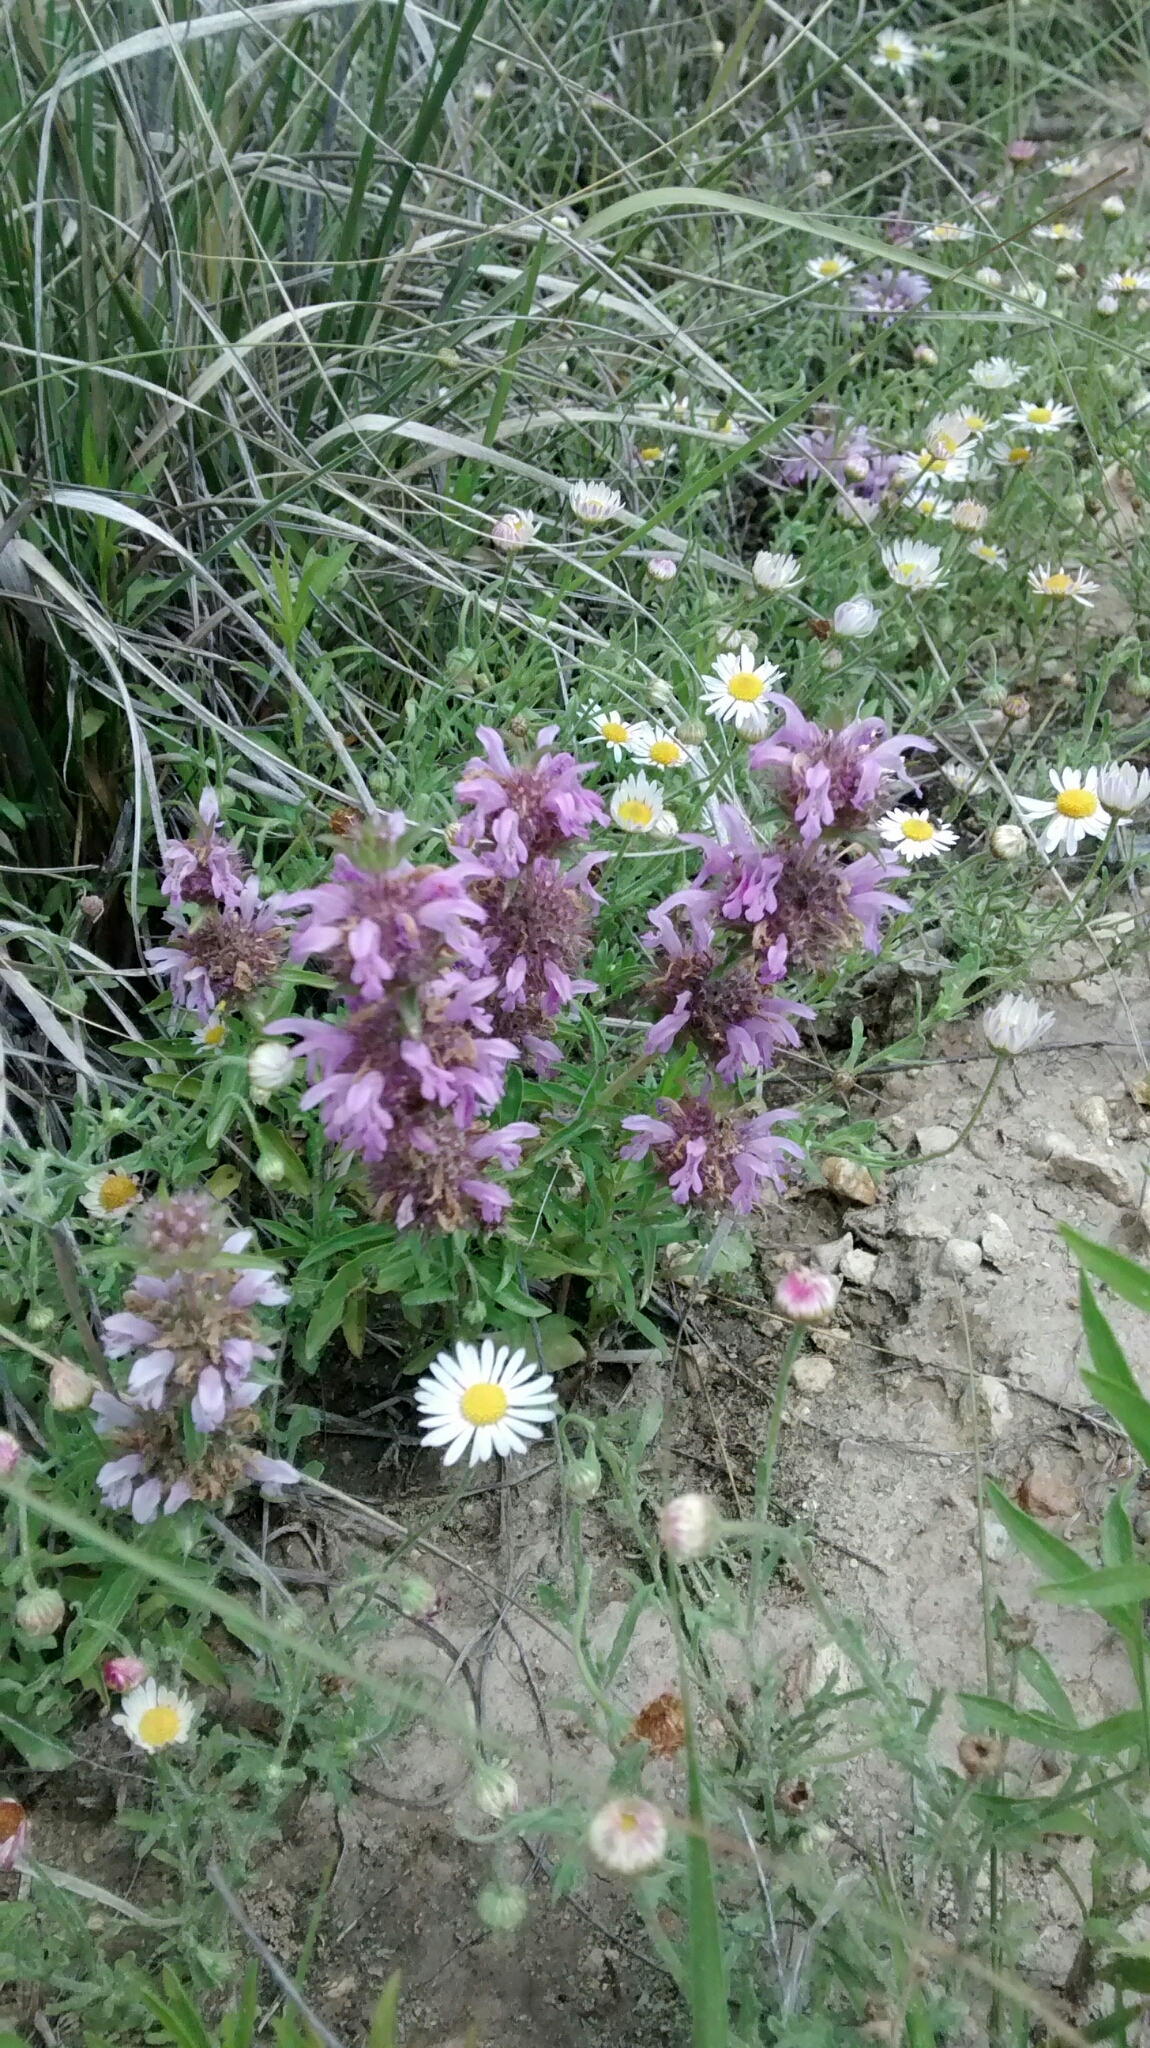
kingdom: Plantae
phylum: Tracheophyta
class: Magnoliopsida
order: Lamiales
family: Lamiaceae
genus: Monarda
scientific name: Monarda citriodora
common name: Lemon beebalm
